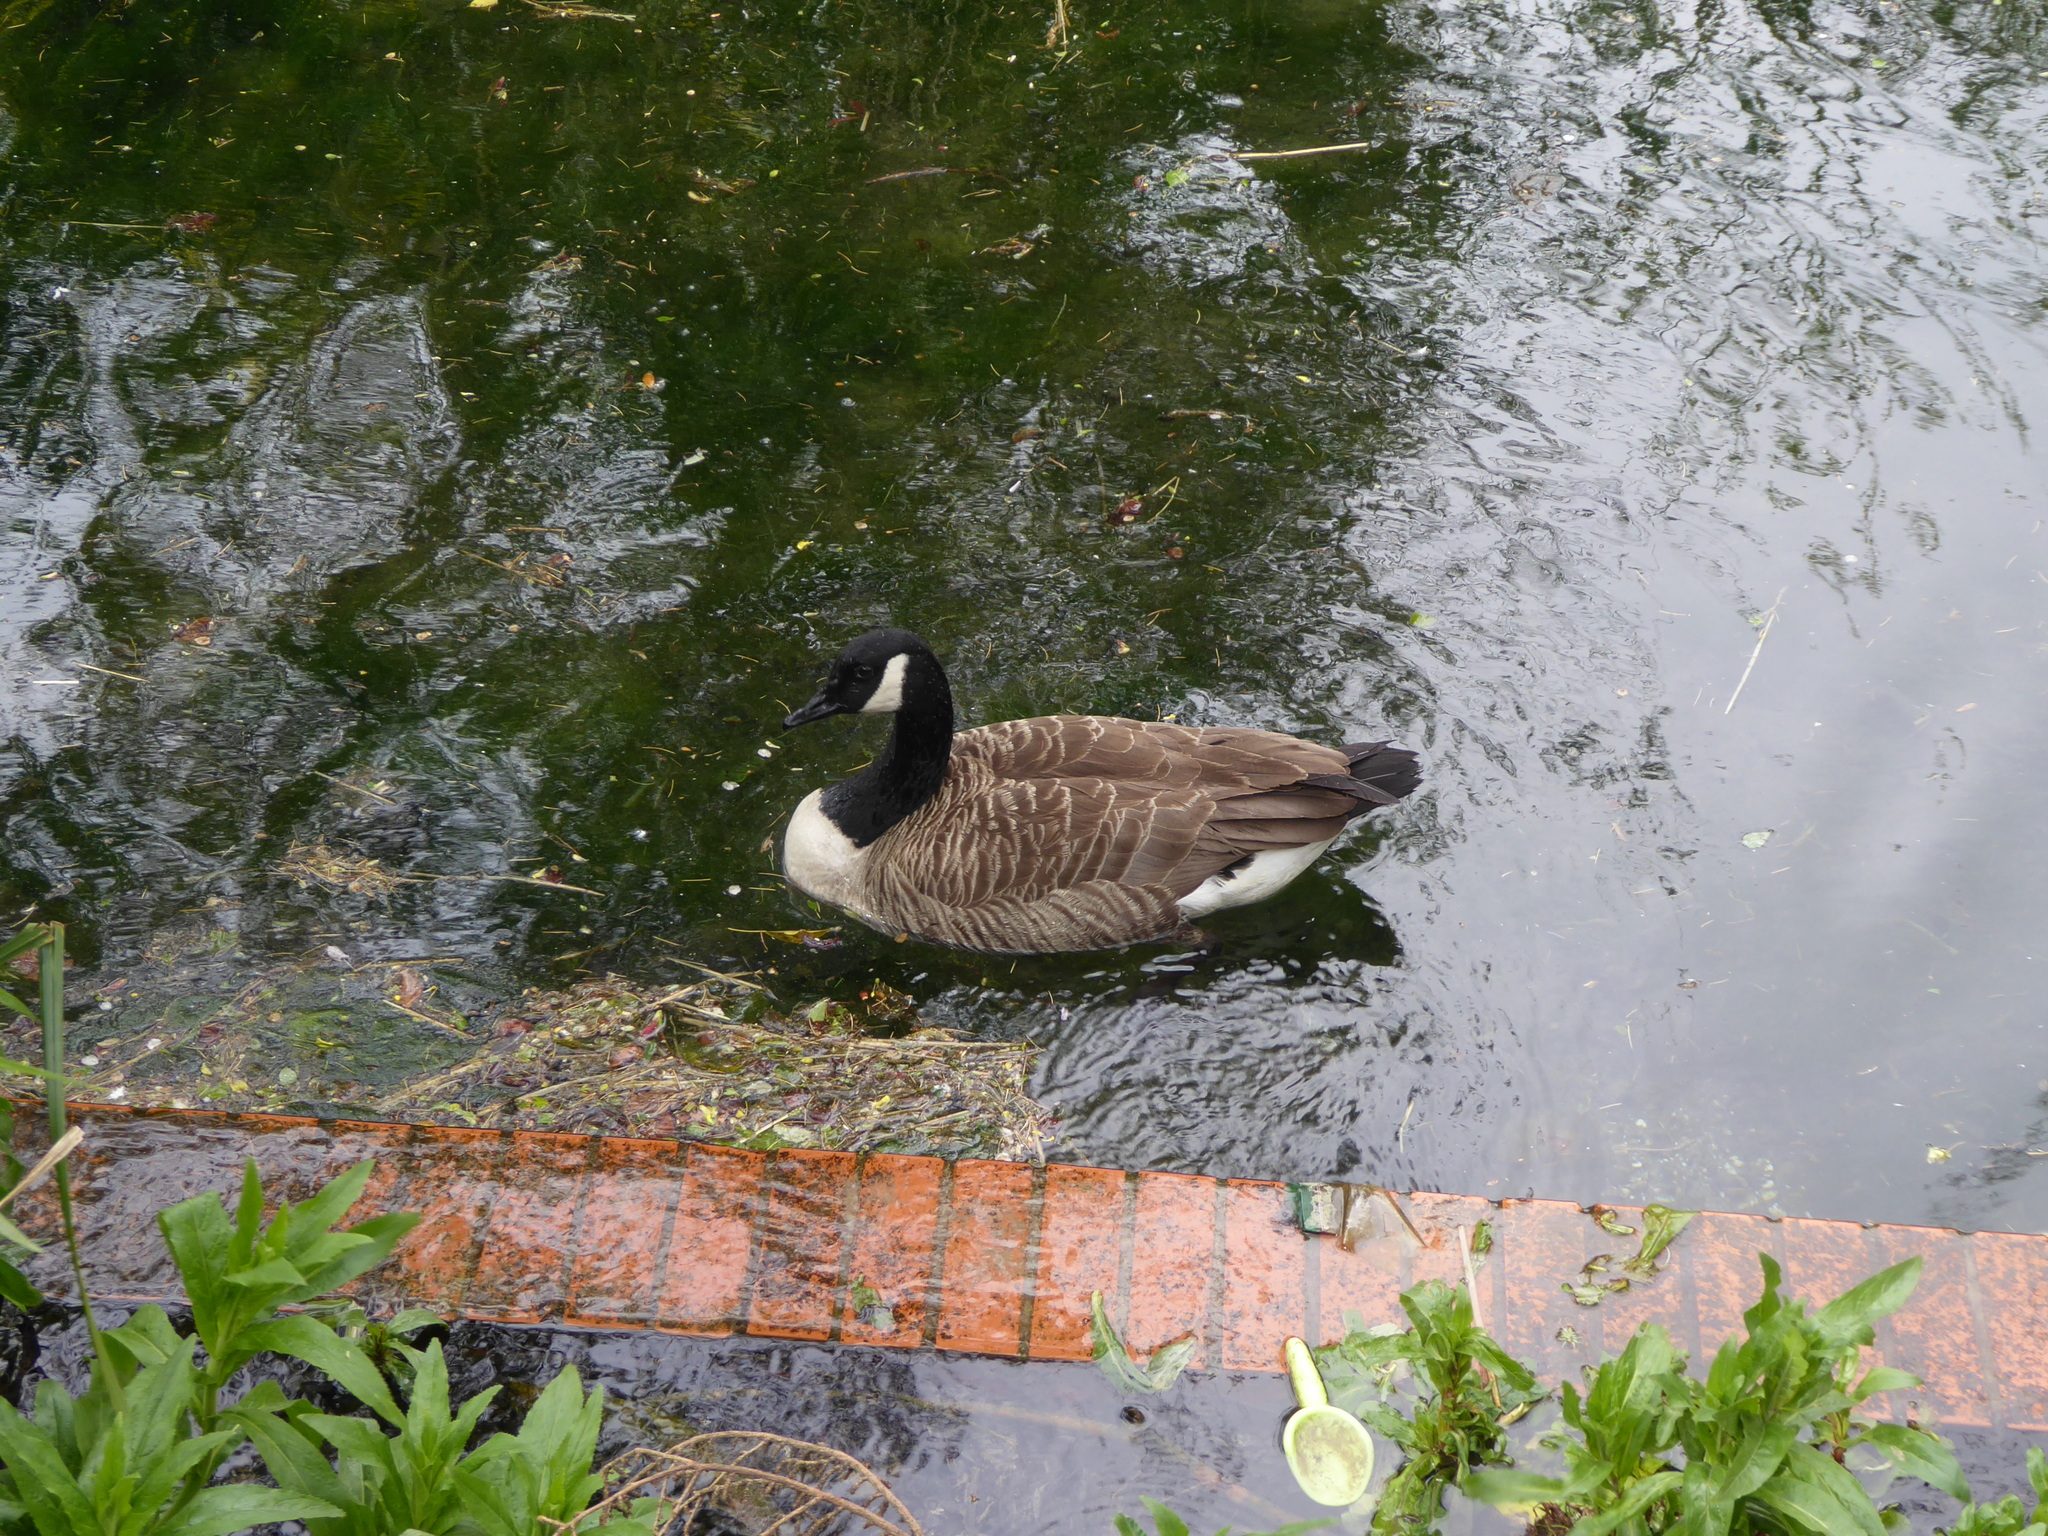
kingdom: Animalia
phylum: Chordata
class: Aves
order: Anseriformes
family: Anatidae
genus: Branta
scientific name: Branta canadensis
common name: Canada goose
